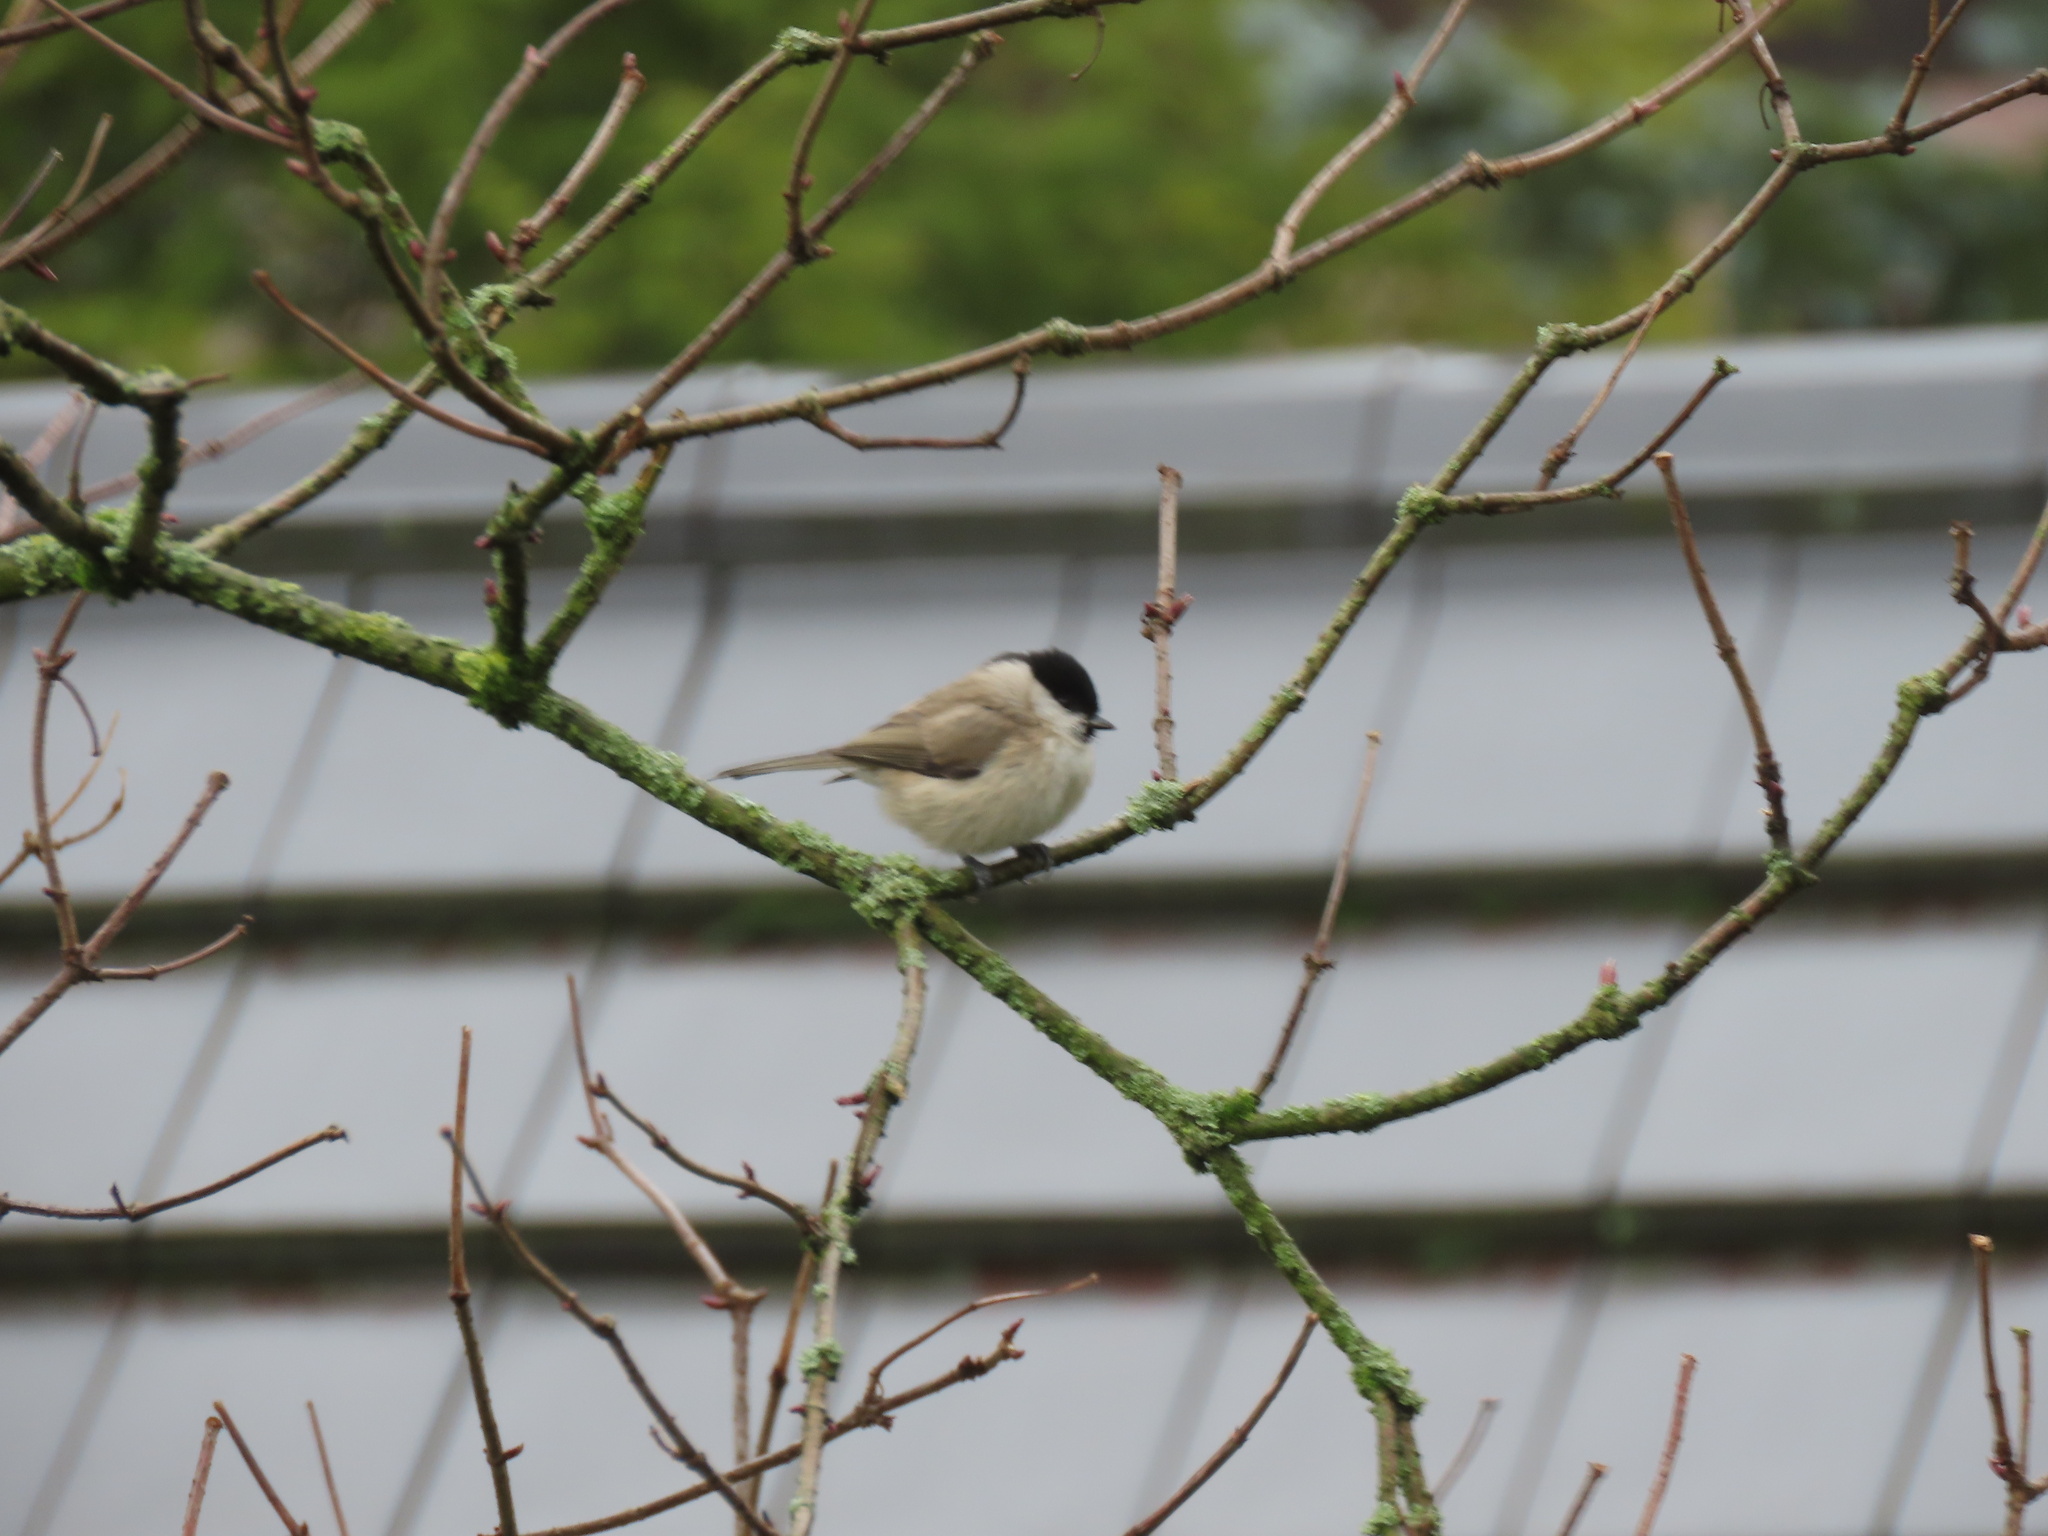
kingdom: Animalia
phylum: Chordata
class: Aves
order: Passeriformes
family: Paridae
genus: Poecile
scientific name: Poecile palustris
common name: Marsh tit
